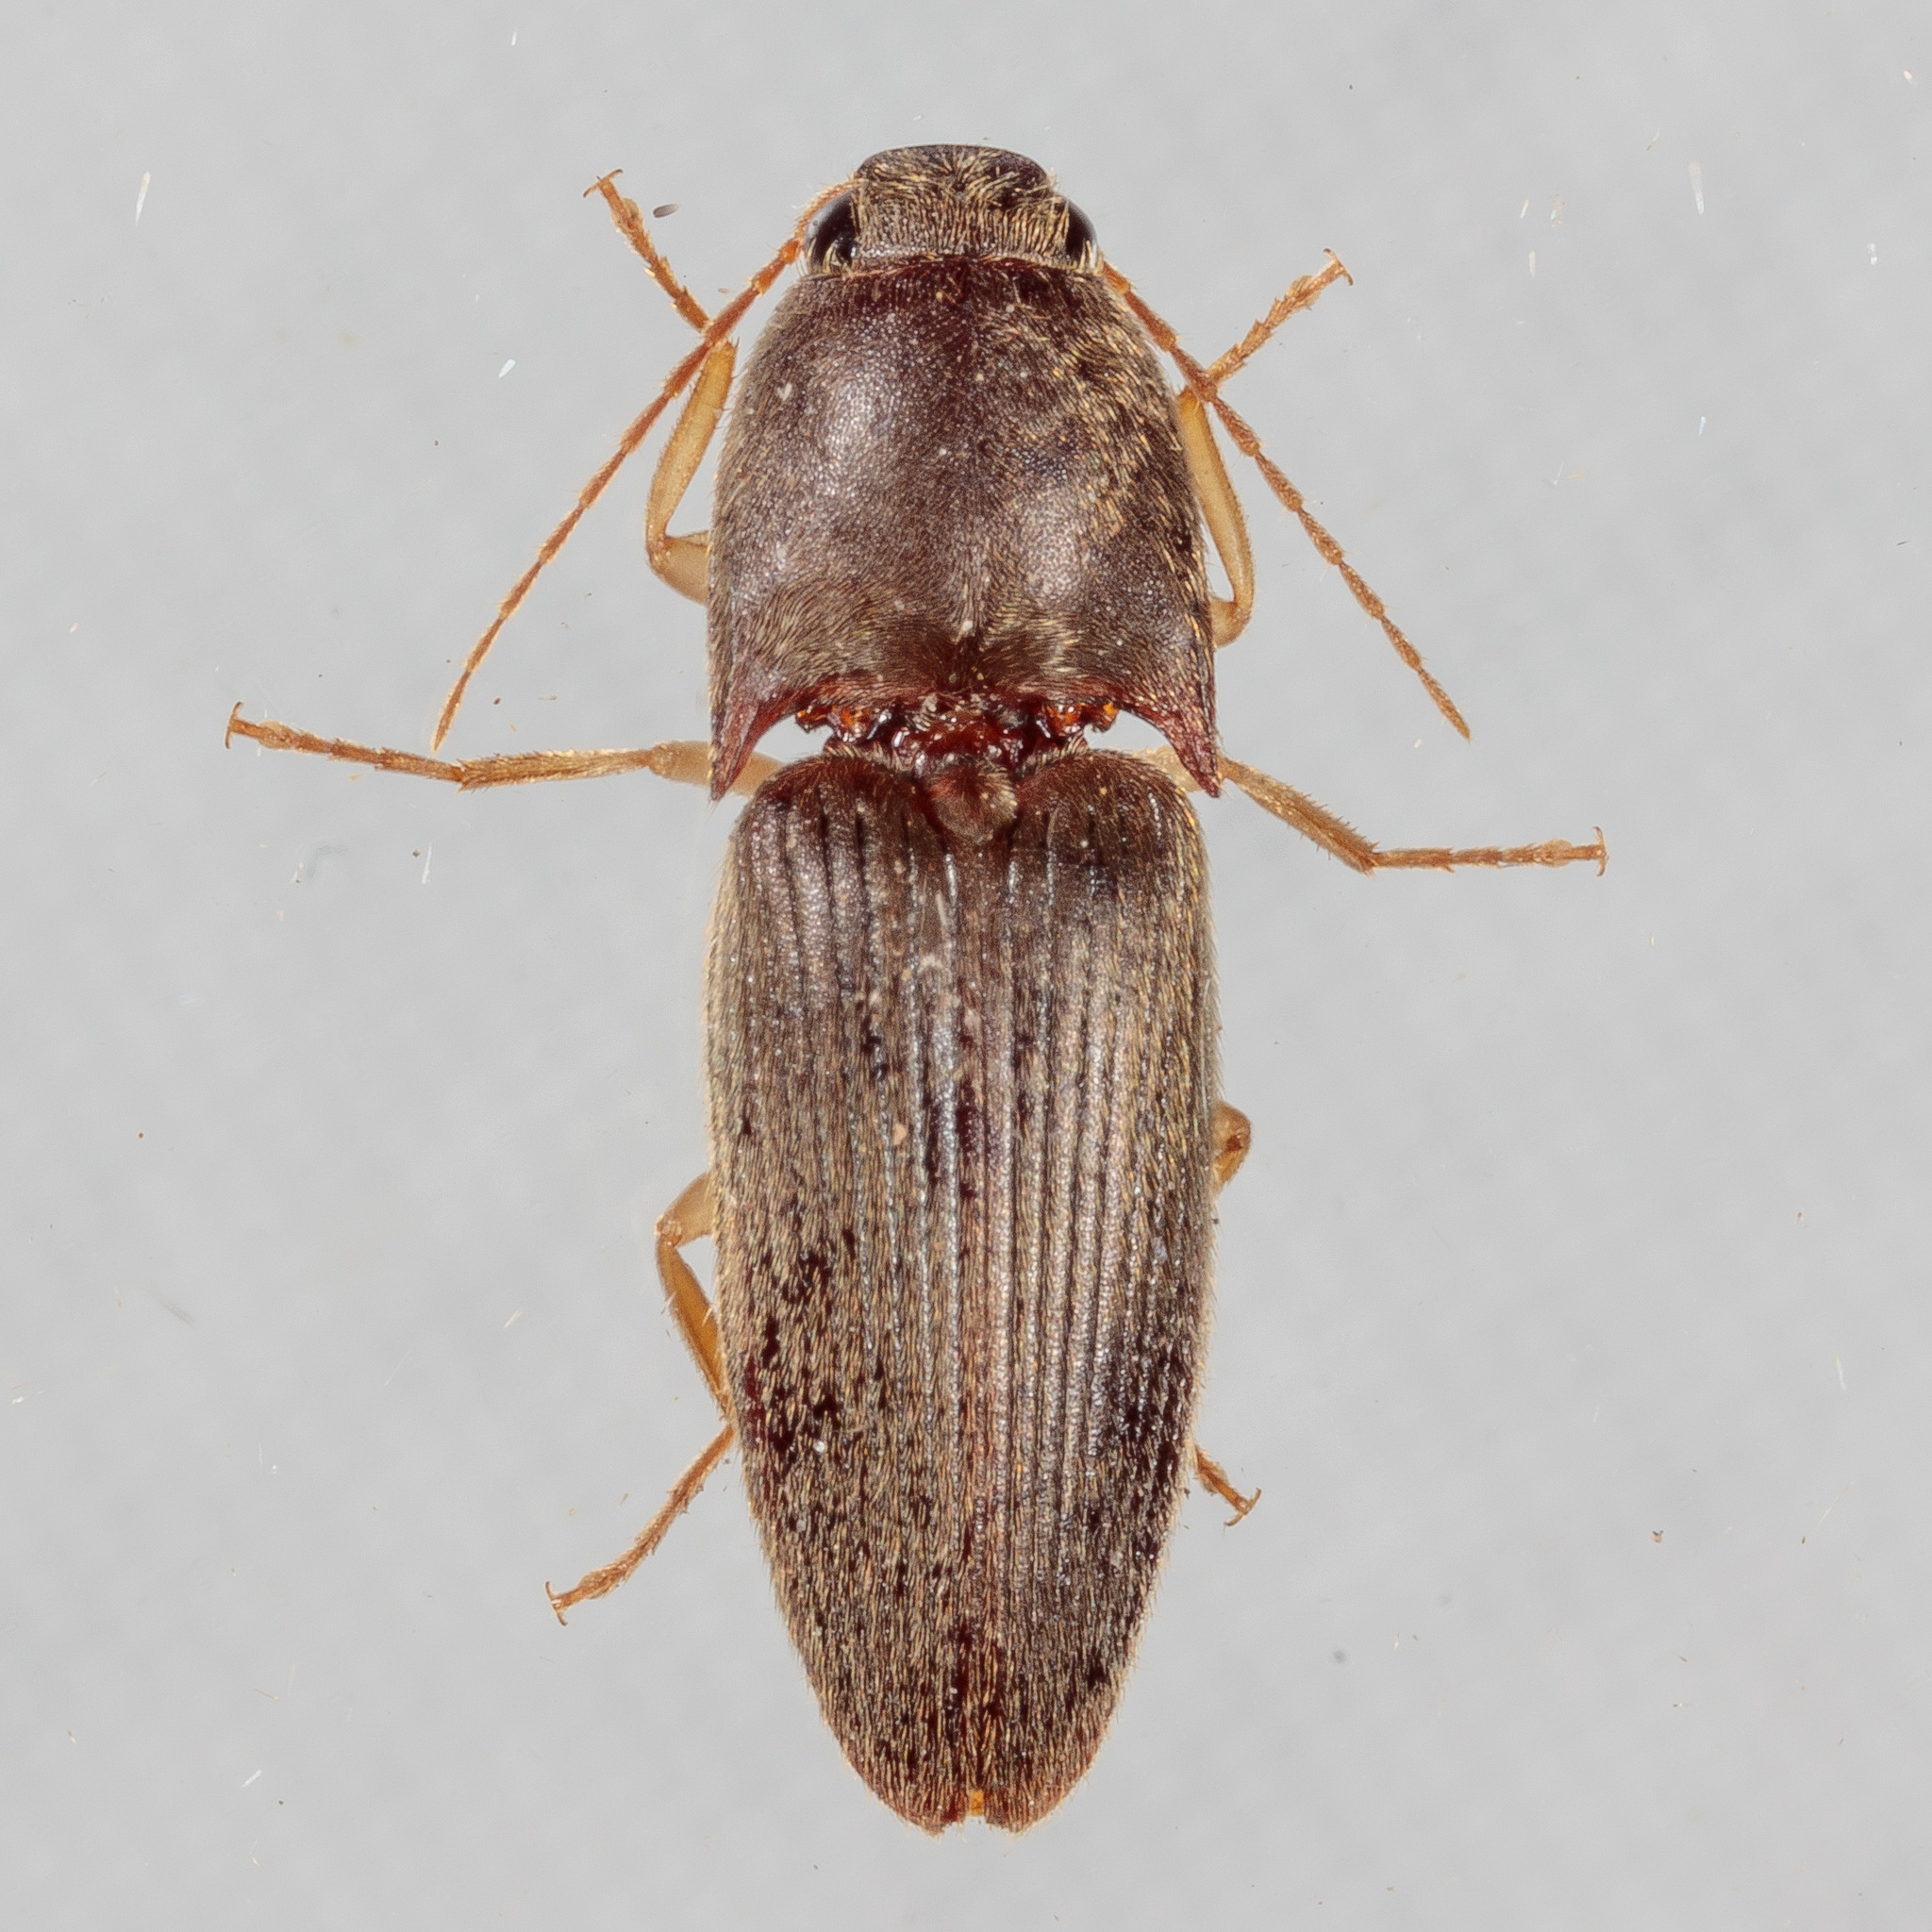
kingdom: Animalia
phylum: Arthropoda
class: Insecta
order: Coleoptera
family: Elateridae
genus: Conoderus
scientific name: Conoderus exsul
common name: Click beetle
